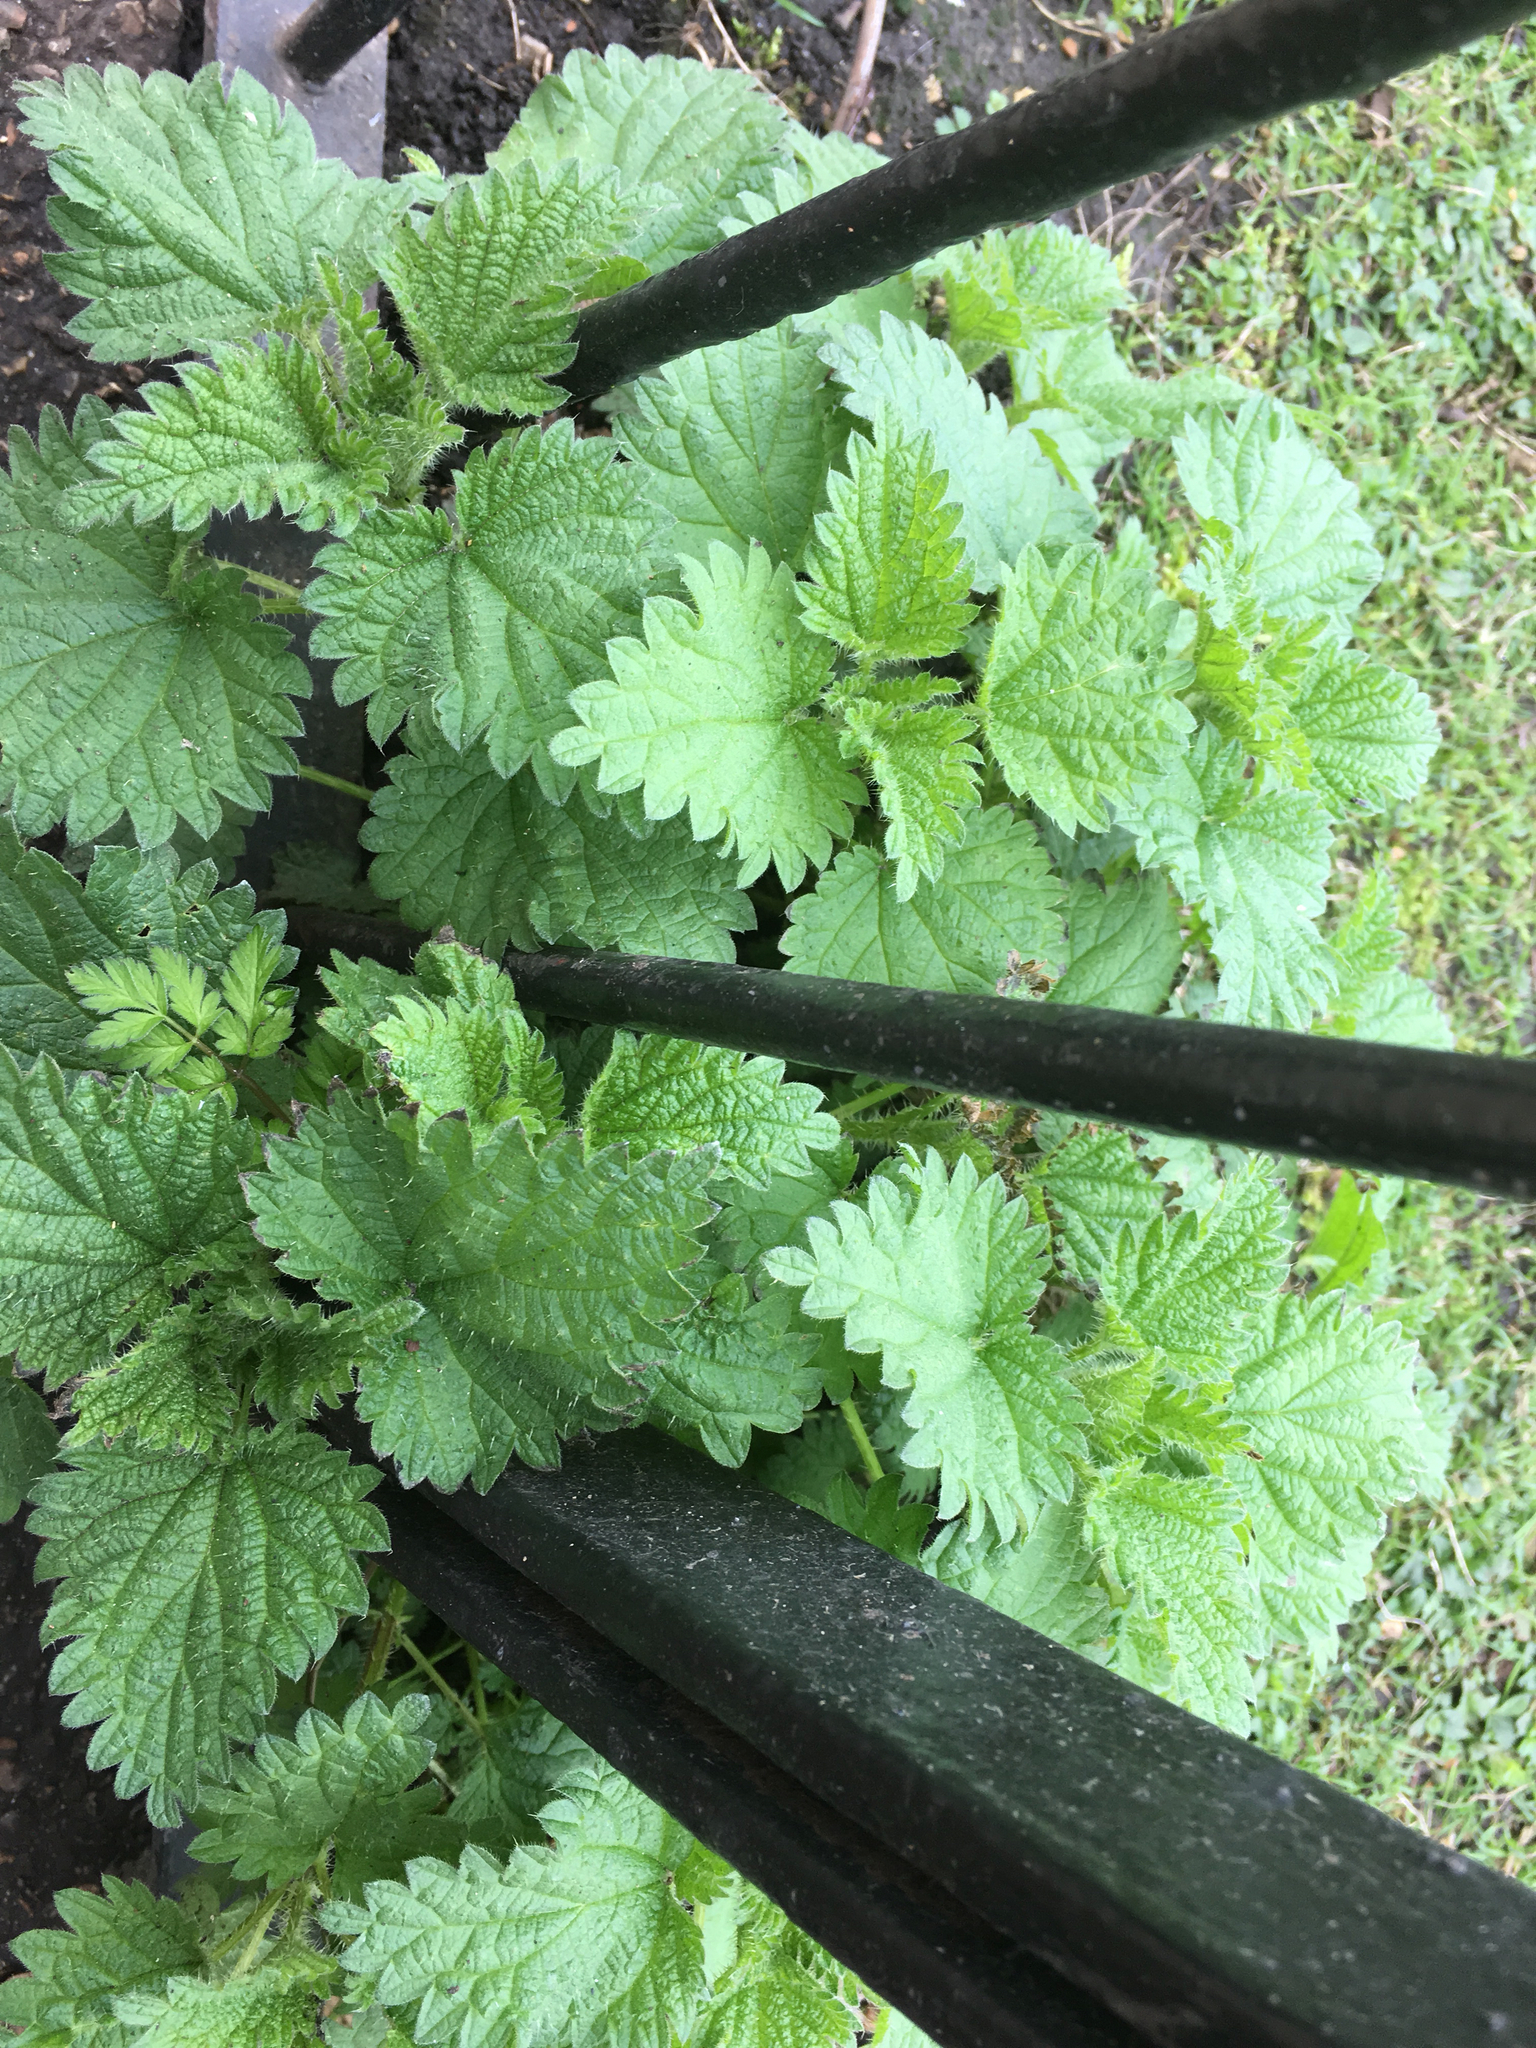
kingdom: Plantae
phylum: Tracheophyta
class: Magnoliopsida
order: Rosales
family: Urticaceae
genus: Urtica
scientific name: Urtica dioica
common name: Common nettle
